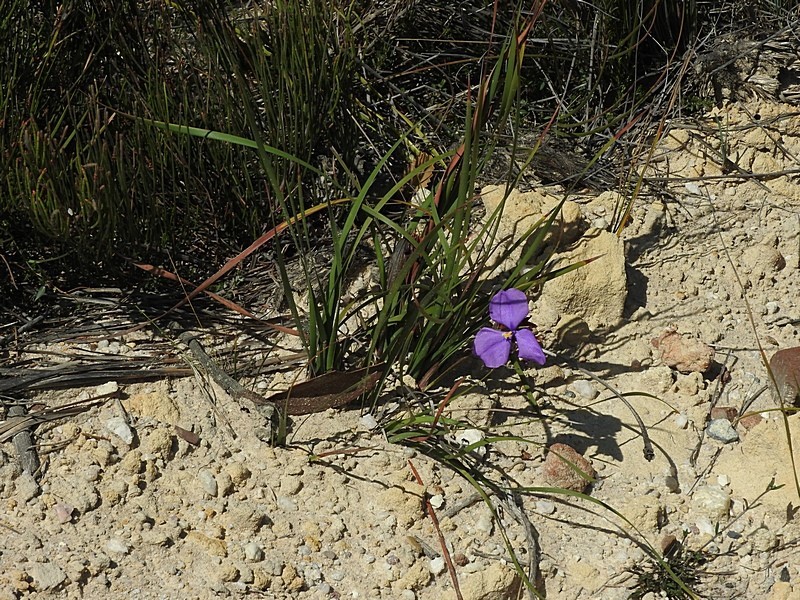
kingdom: Plantae
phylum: Tracheophyta
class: Liliopsida
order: Asparagales
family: Iridaceae
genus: Patersonia
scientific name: Patersonia sericea
